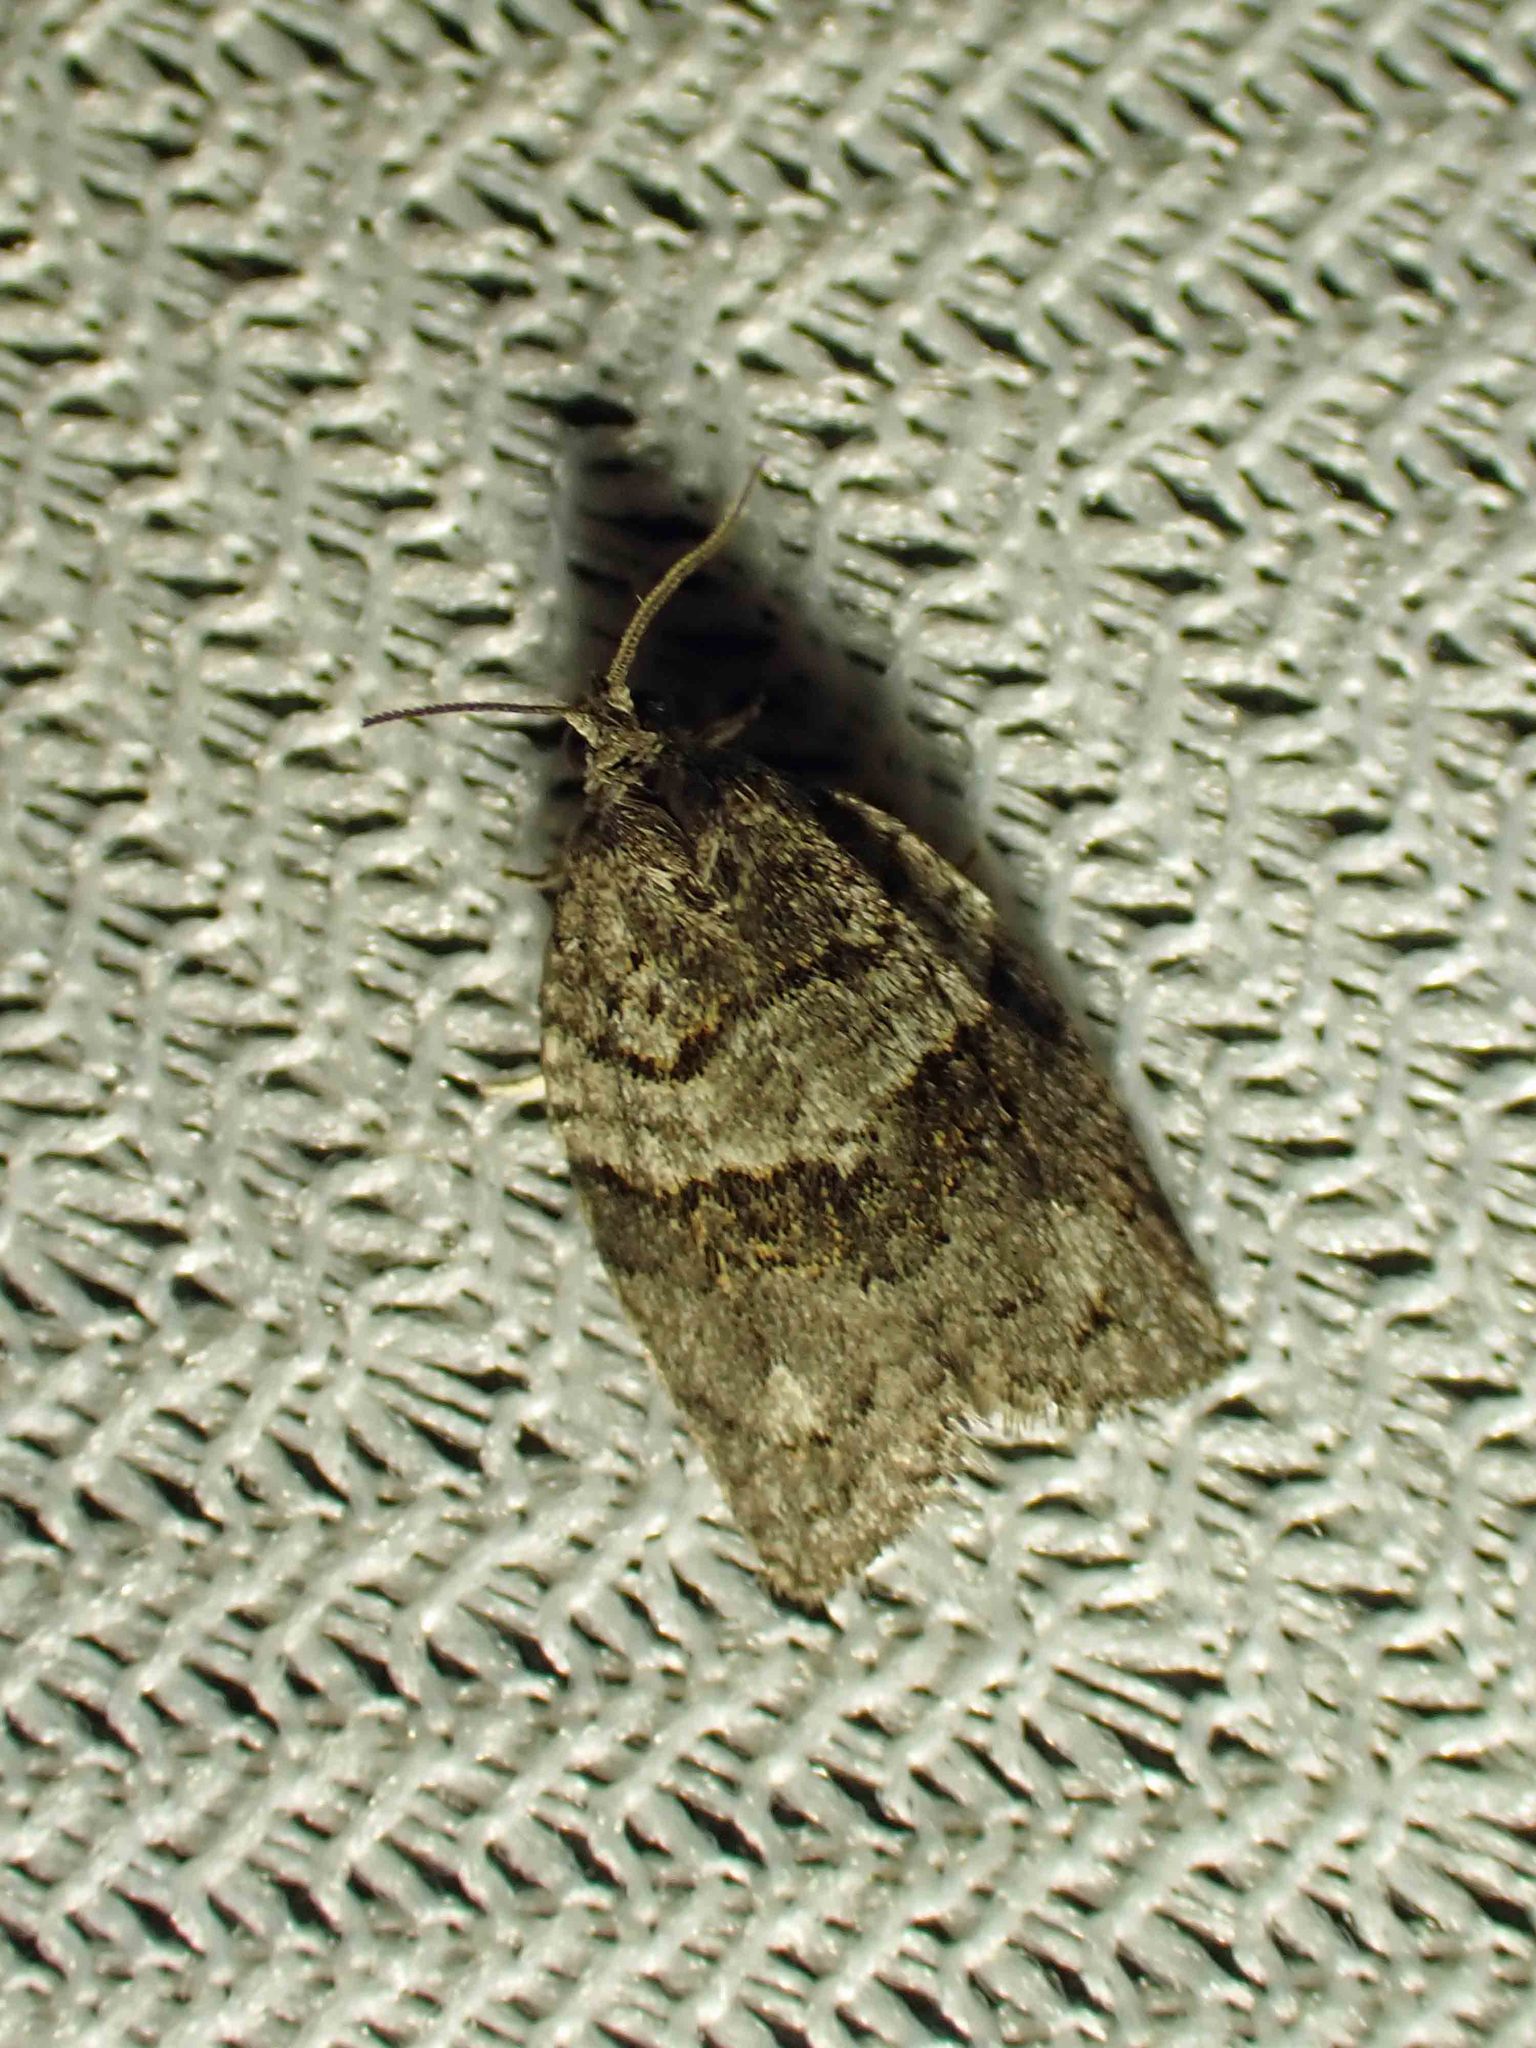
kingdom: Animalia
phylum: Arthropoda
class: Insecta
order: Lepidoptera
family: Tortricidae
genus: Syndemis
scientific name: Syndemis afflictana
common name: Gray leafroller moth
